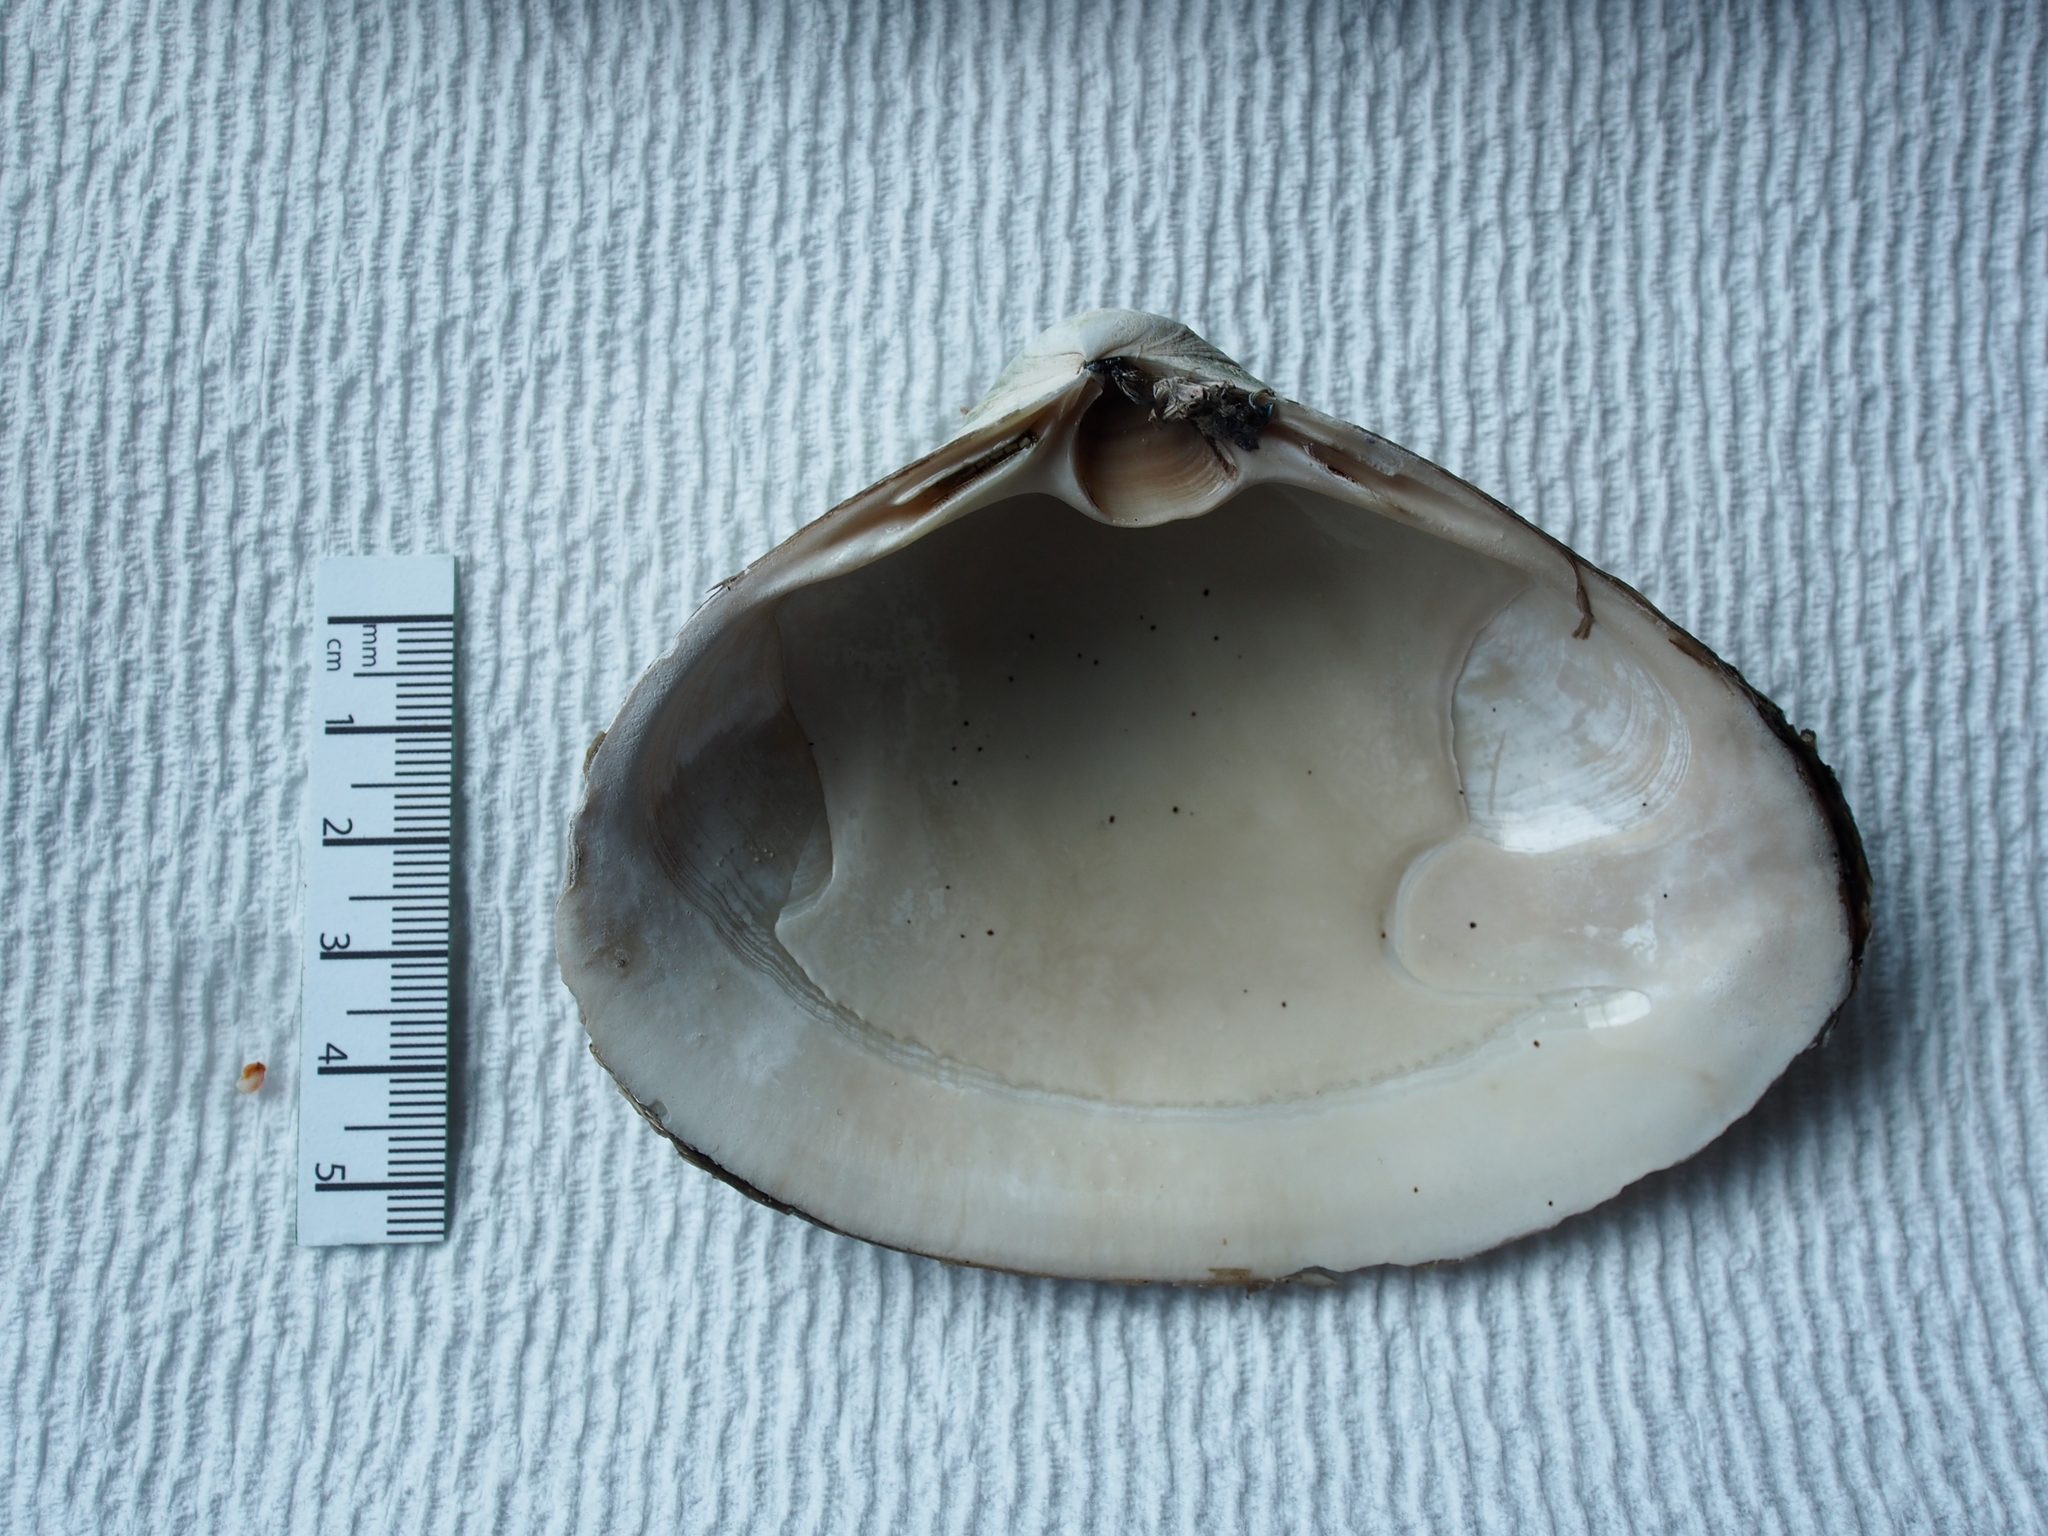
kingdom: Animalia
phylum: Mollusca
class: Bivalvia
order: Venerida
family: Mactridae
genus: Spisula
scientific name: Spisula solidissima
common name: Atlantic surf clam
